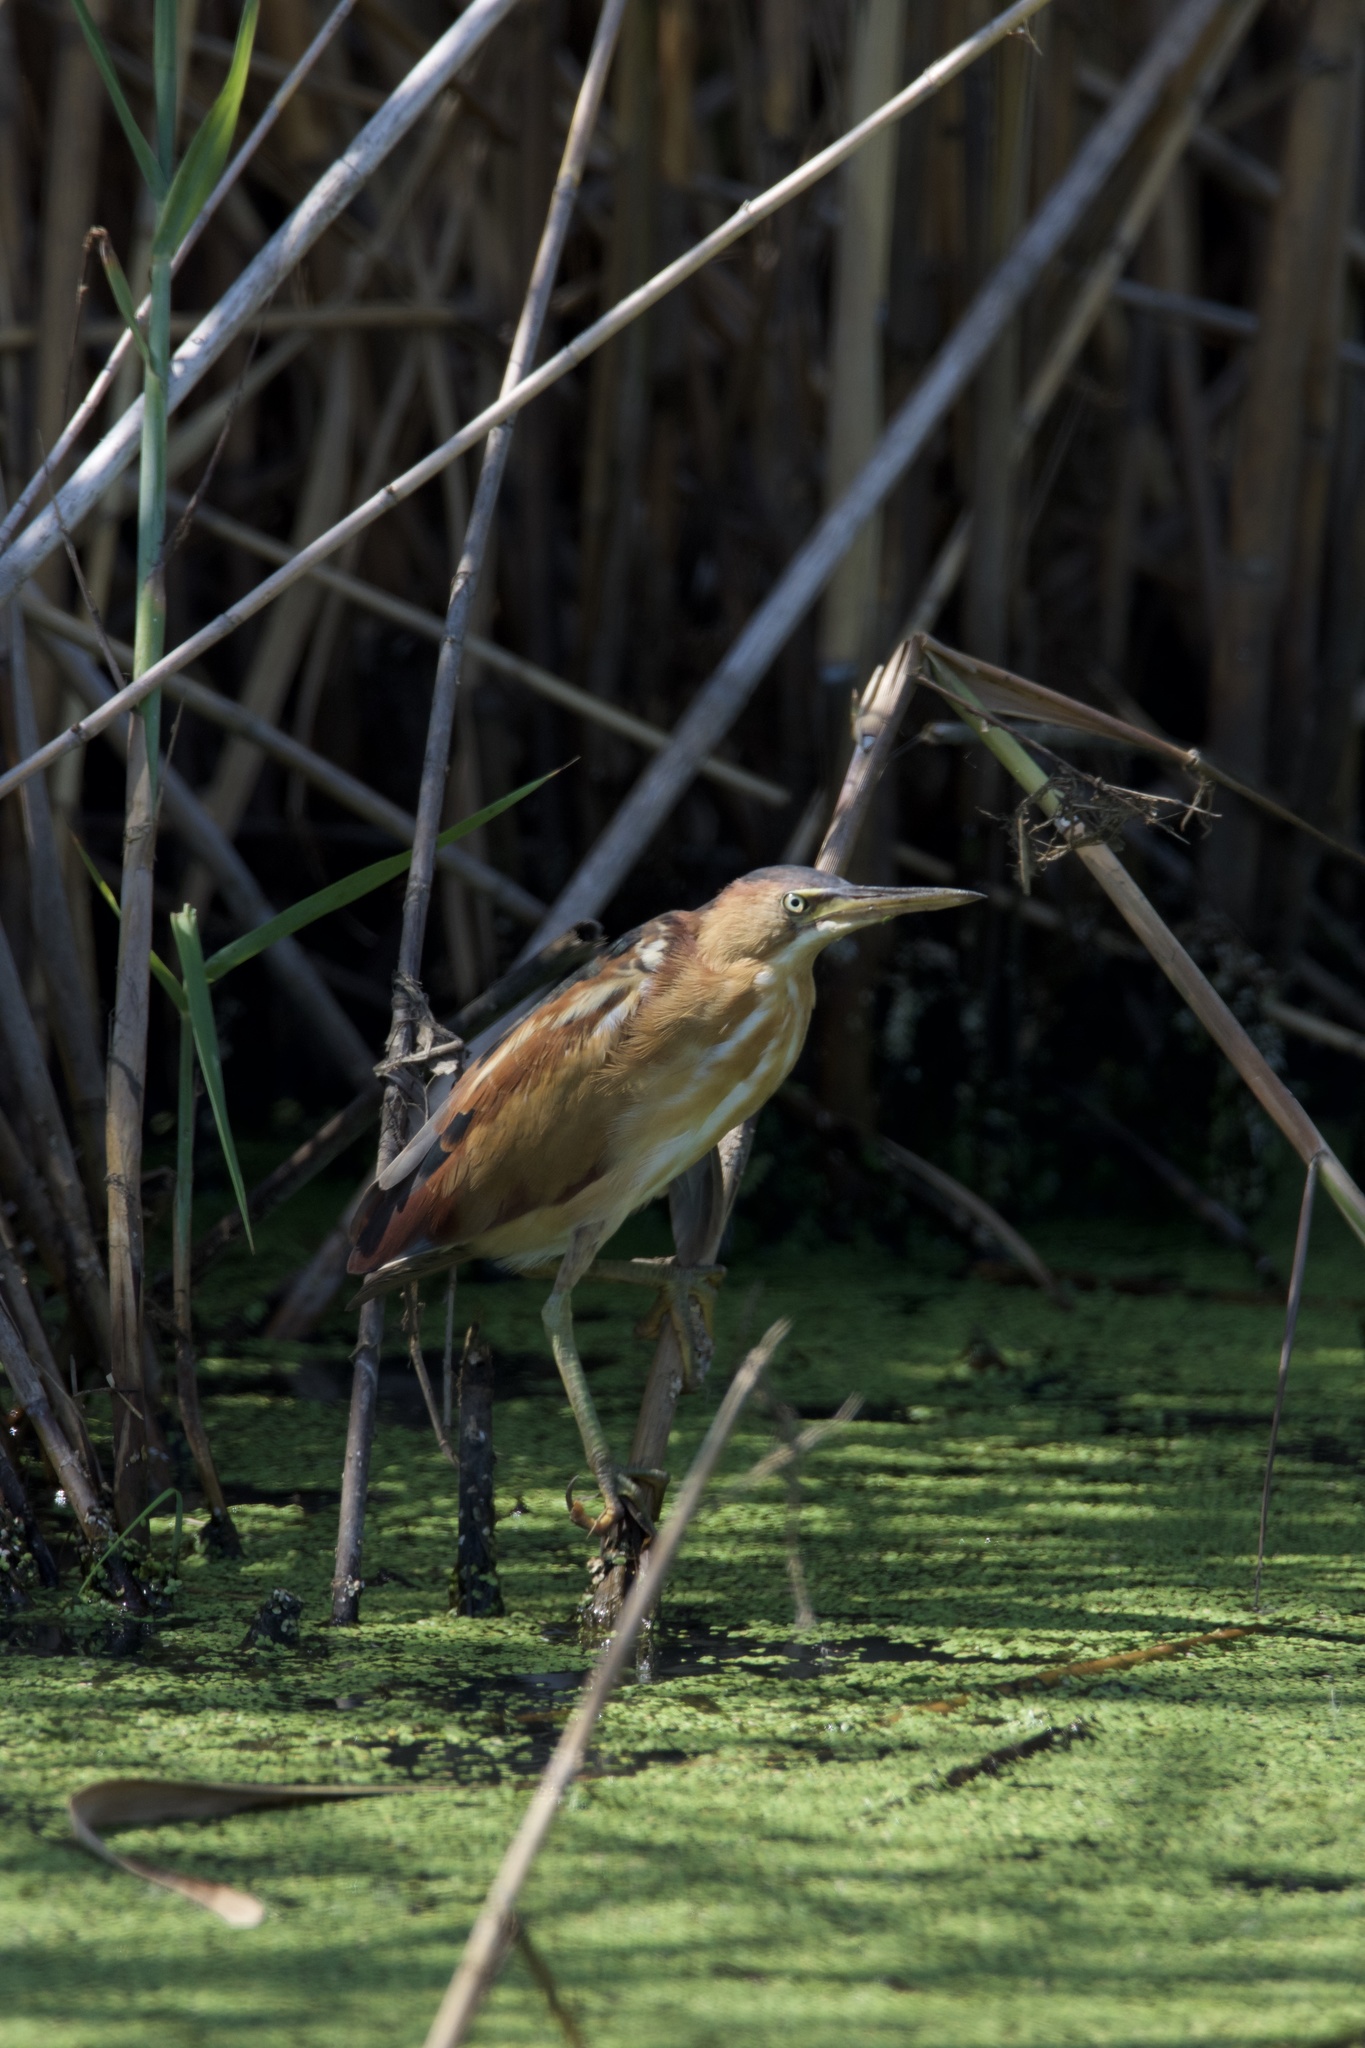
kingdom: Animalia
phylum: Chordata
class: Aves
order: Pelecaniformes
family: Ardeidae
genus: Ixobrychus
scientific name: Ixobrychus exilis
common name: Least bittern
